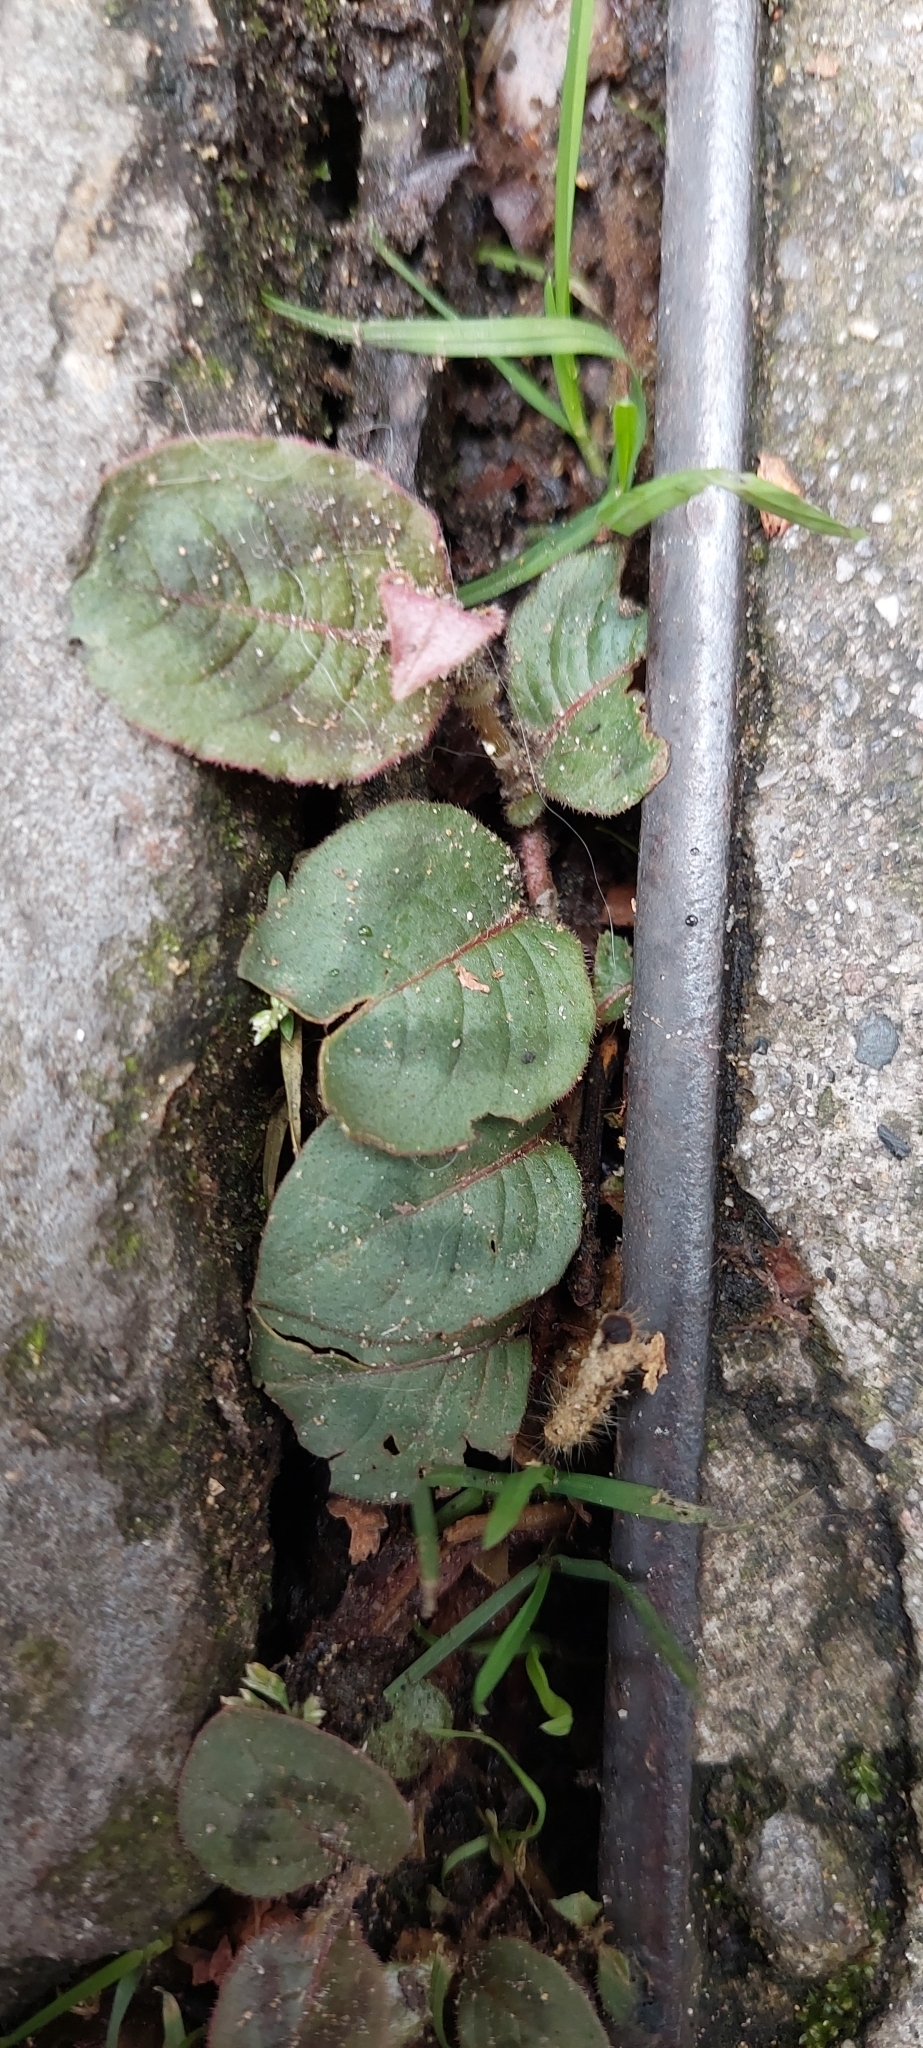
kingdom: Plantae
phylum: Tracheophyta
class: Magnoliopsida
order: Caryophyllales
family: Polygonaceae
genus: Persicaria
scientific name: Persicaria capitata
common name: Pinkhead smartweed
